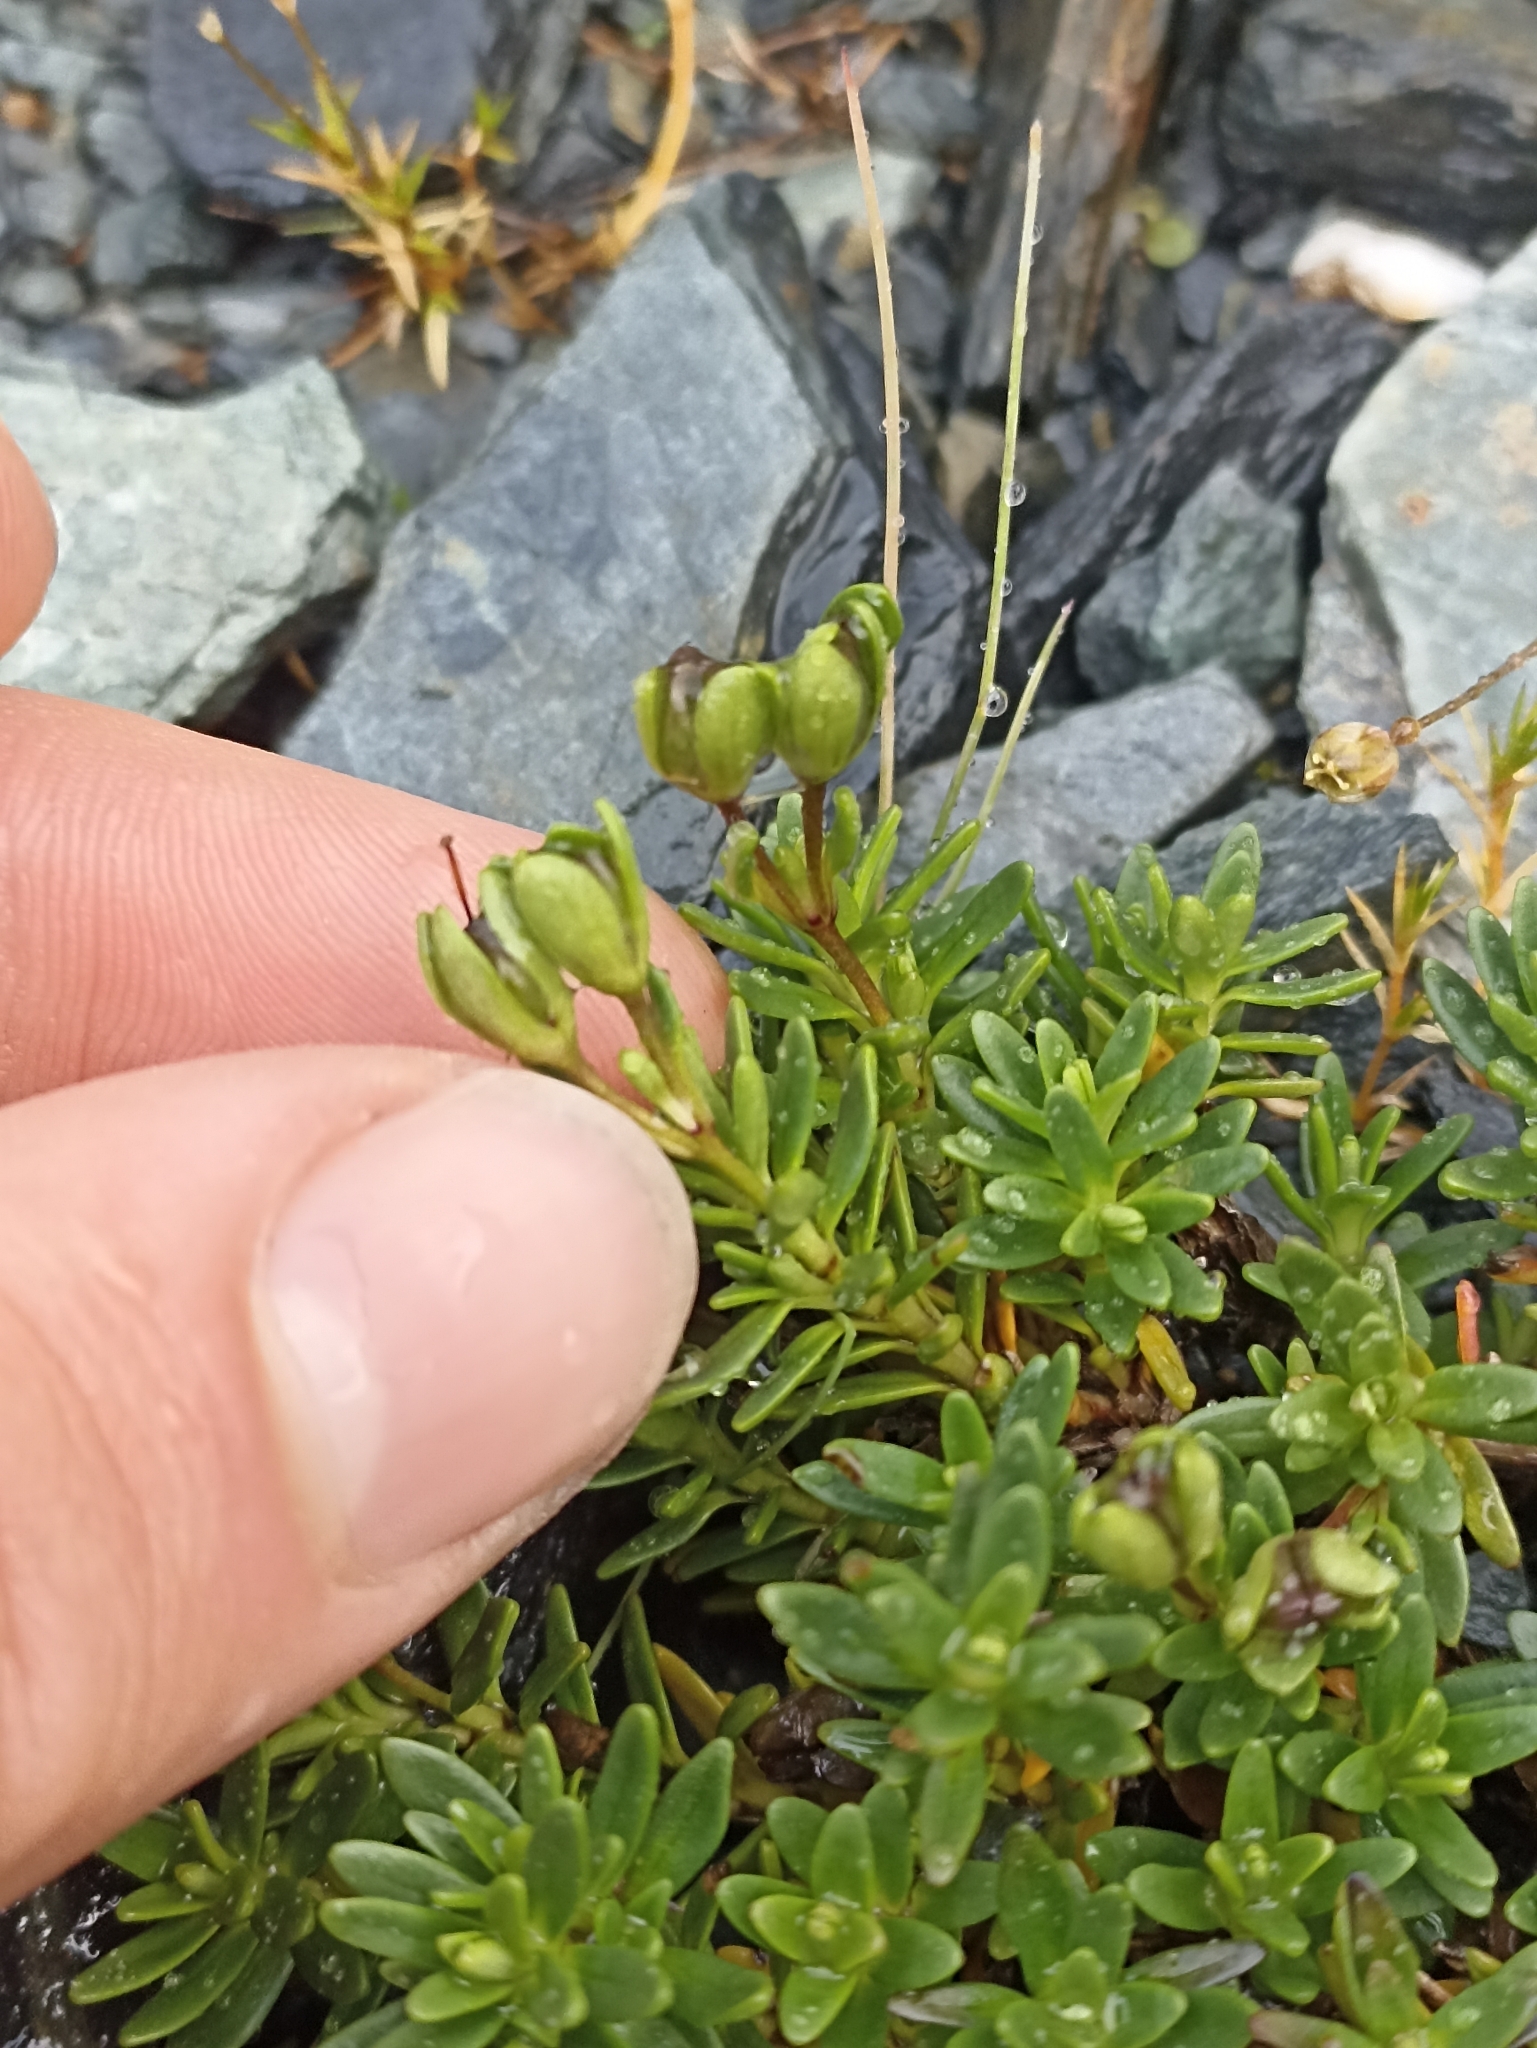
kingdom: Plantae
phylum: Tracheophyta
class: Magnoliopsida
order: Lamiales
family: Plantaginaceae
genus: Veronica
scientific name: Veronica colostylis
